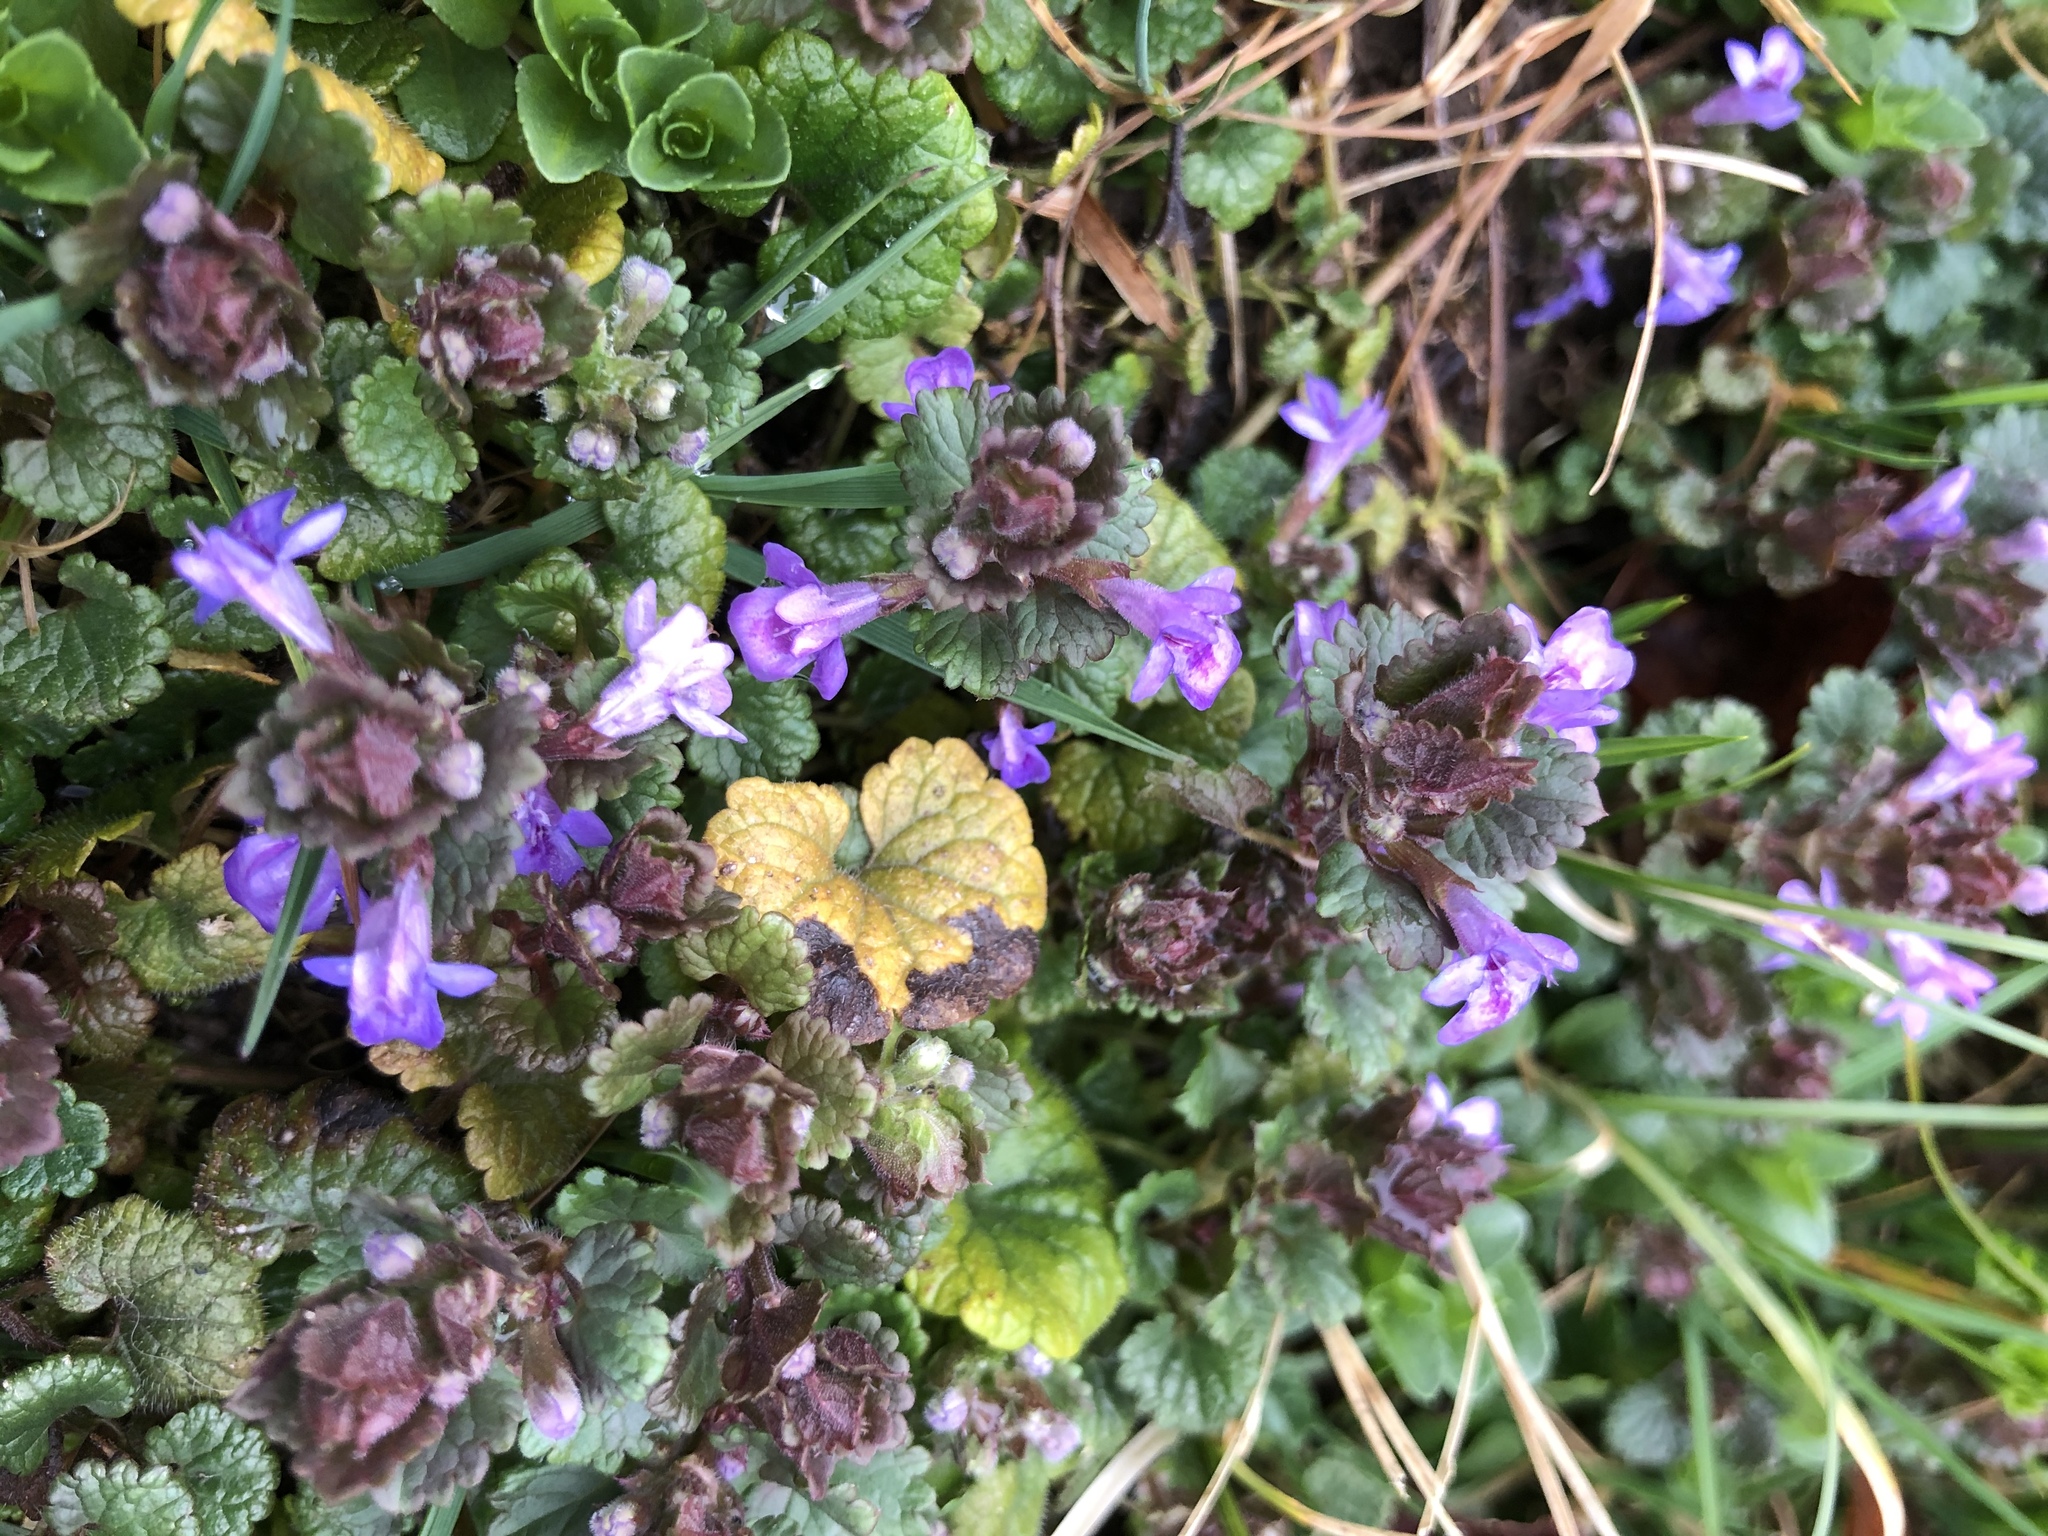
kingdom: Plantae
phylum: Tracheophyta
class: Magnoliopsida
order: Lamiales
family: Lamiaceae
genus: Glechoma
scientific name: Glechoma hederacea
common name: Ground ivy
